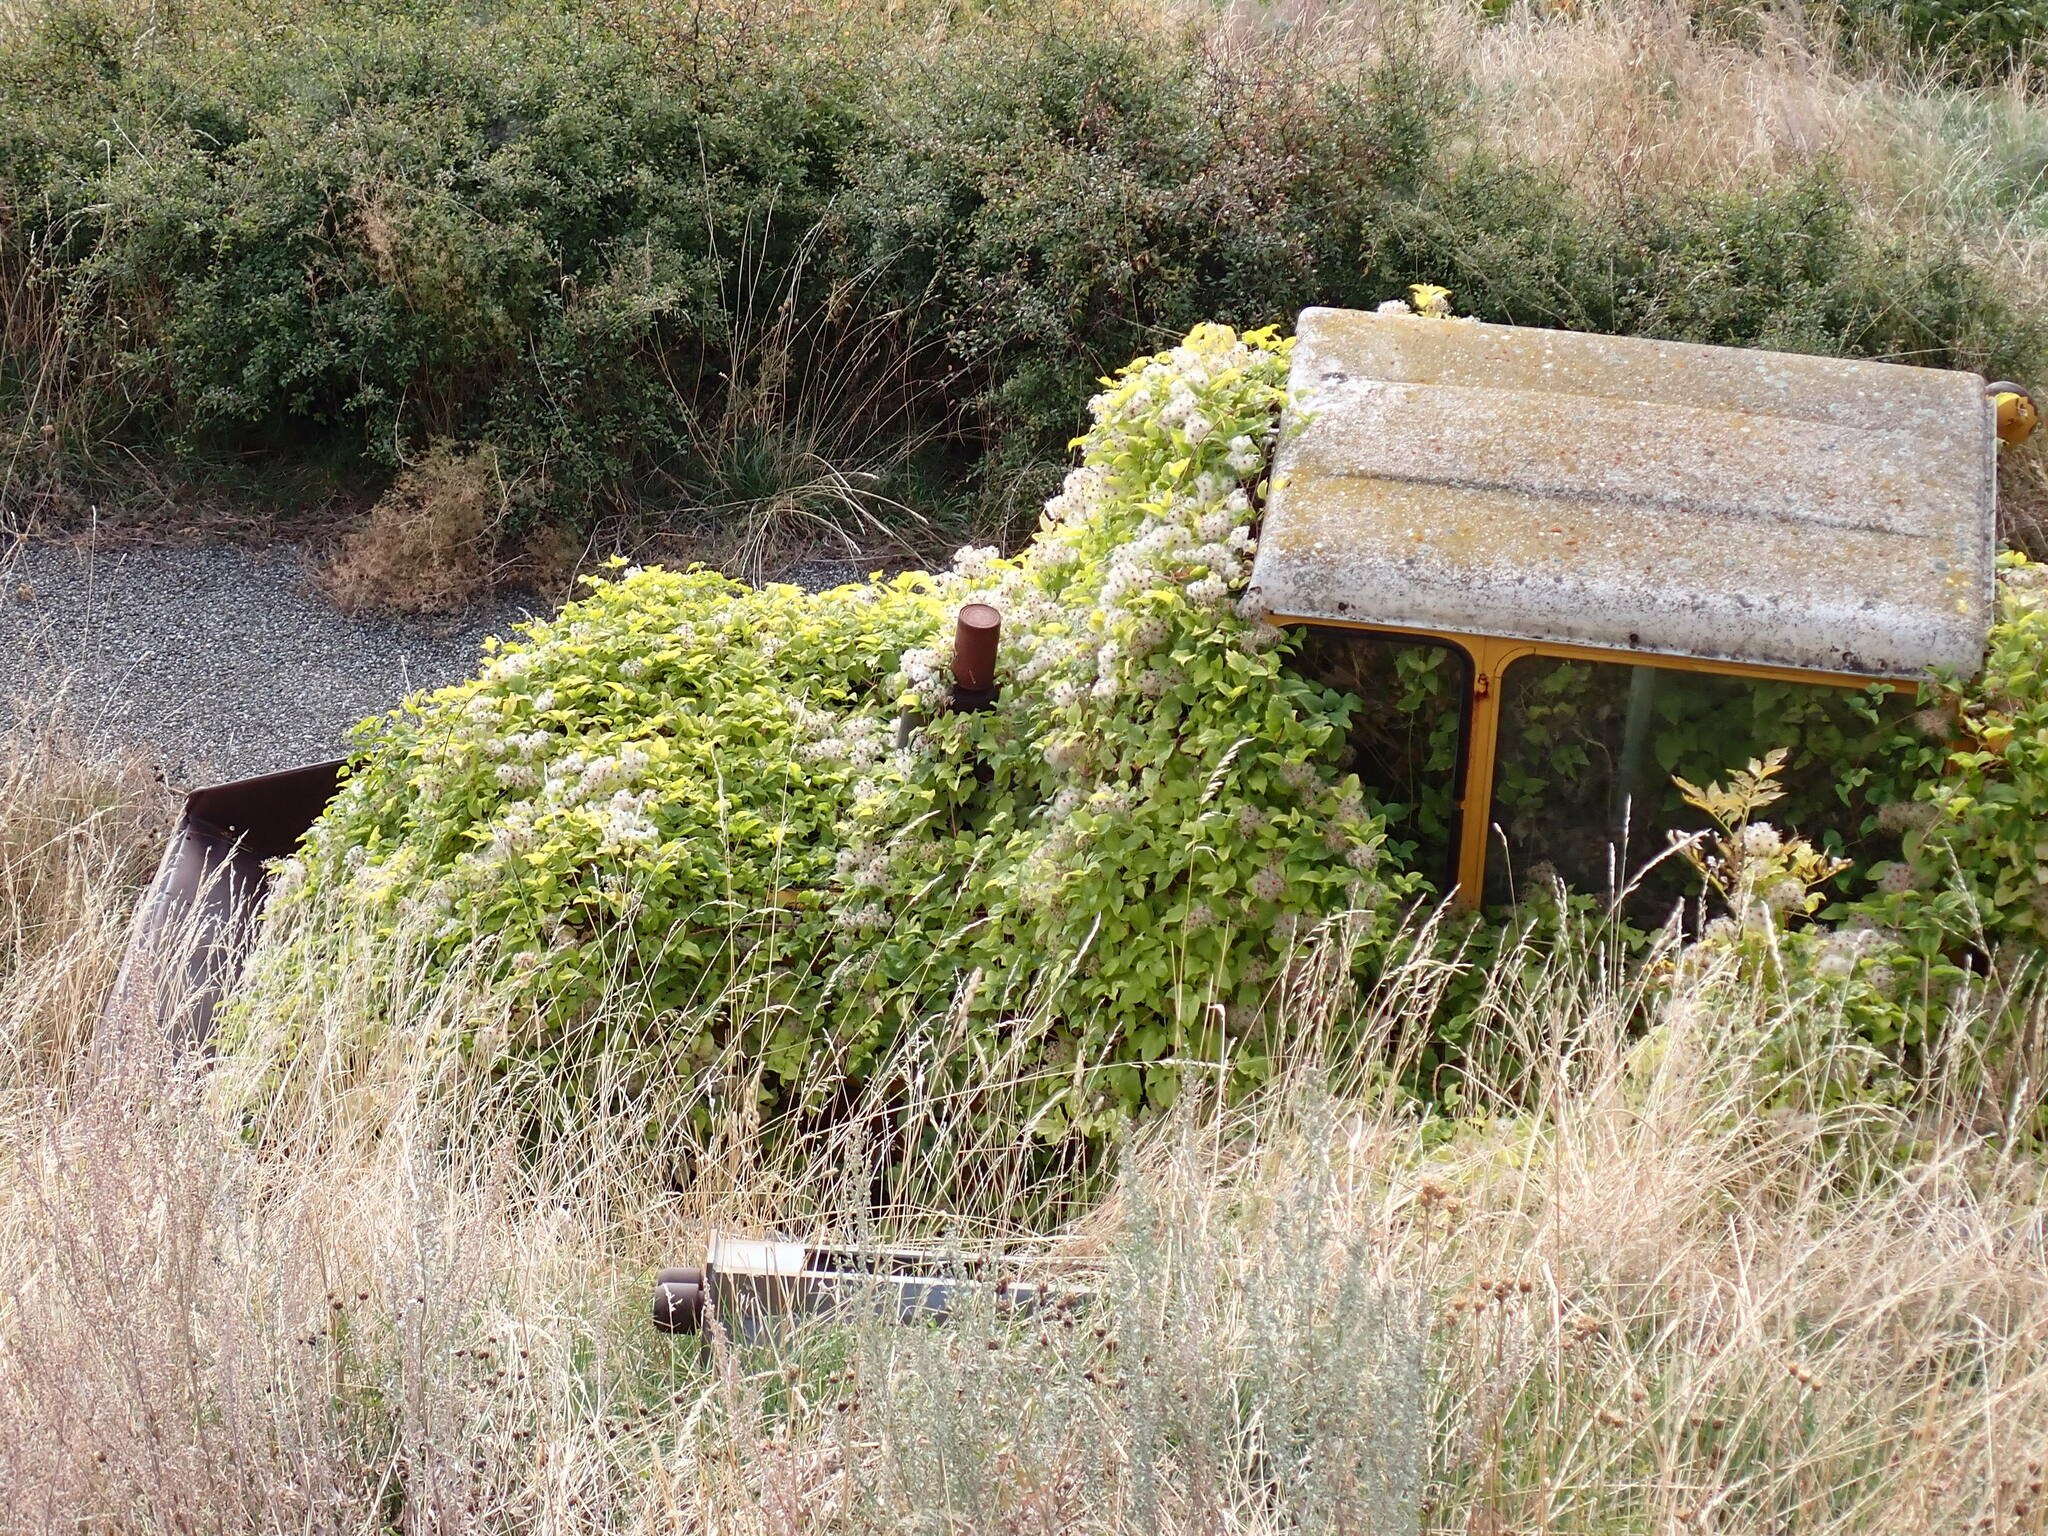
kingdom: Plantae
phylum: Tracheophyta
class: Magnoliopsida
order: Ranunculales
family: Ranunculaceae
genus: Clematis
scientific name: Clematis vitalba
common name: Evergreen clematis
